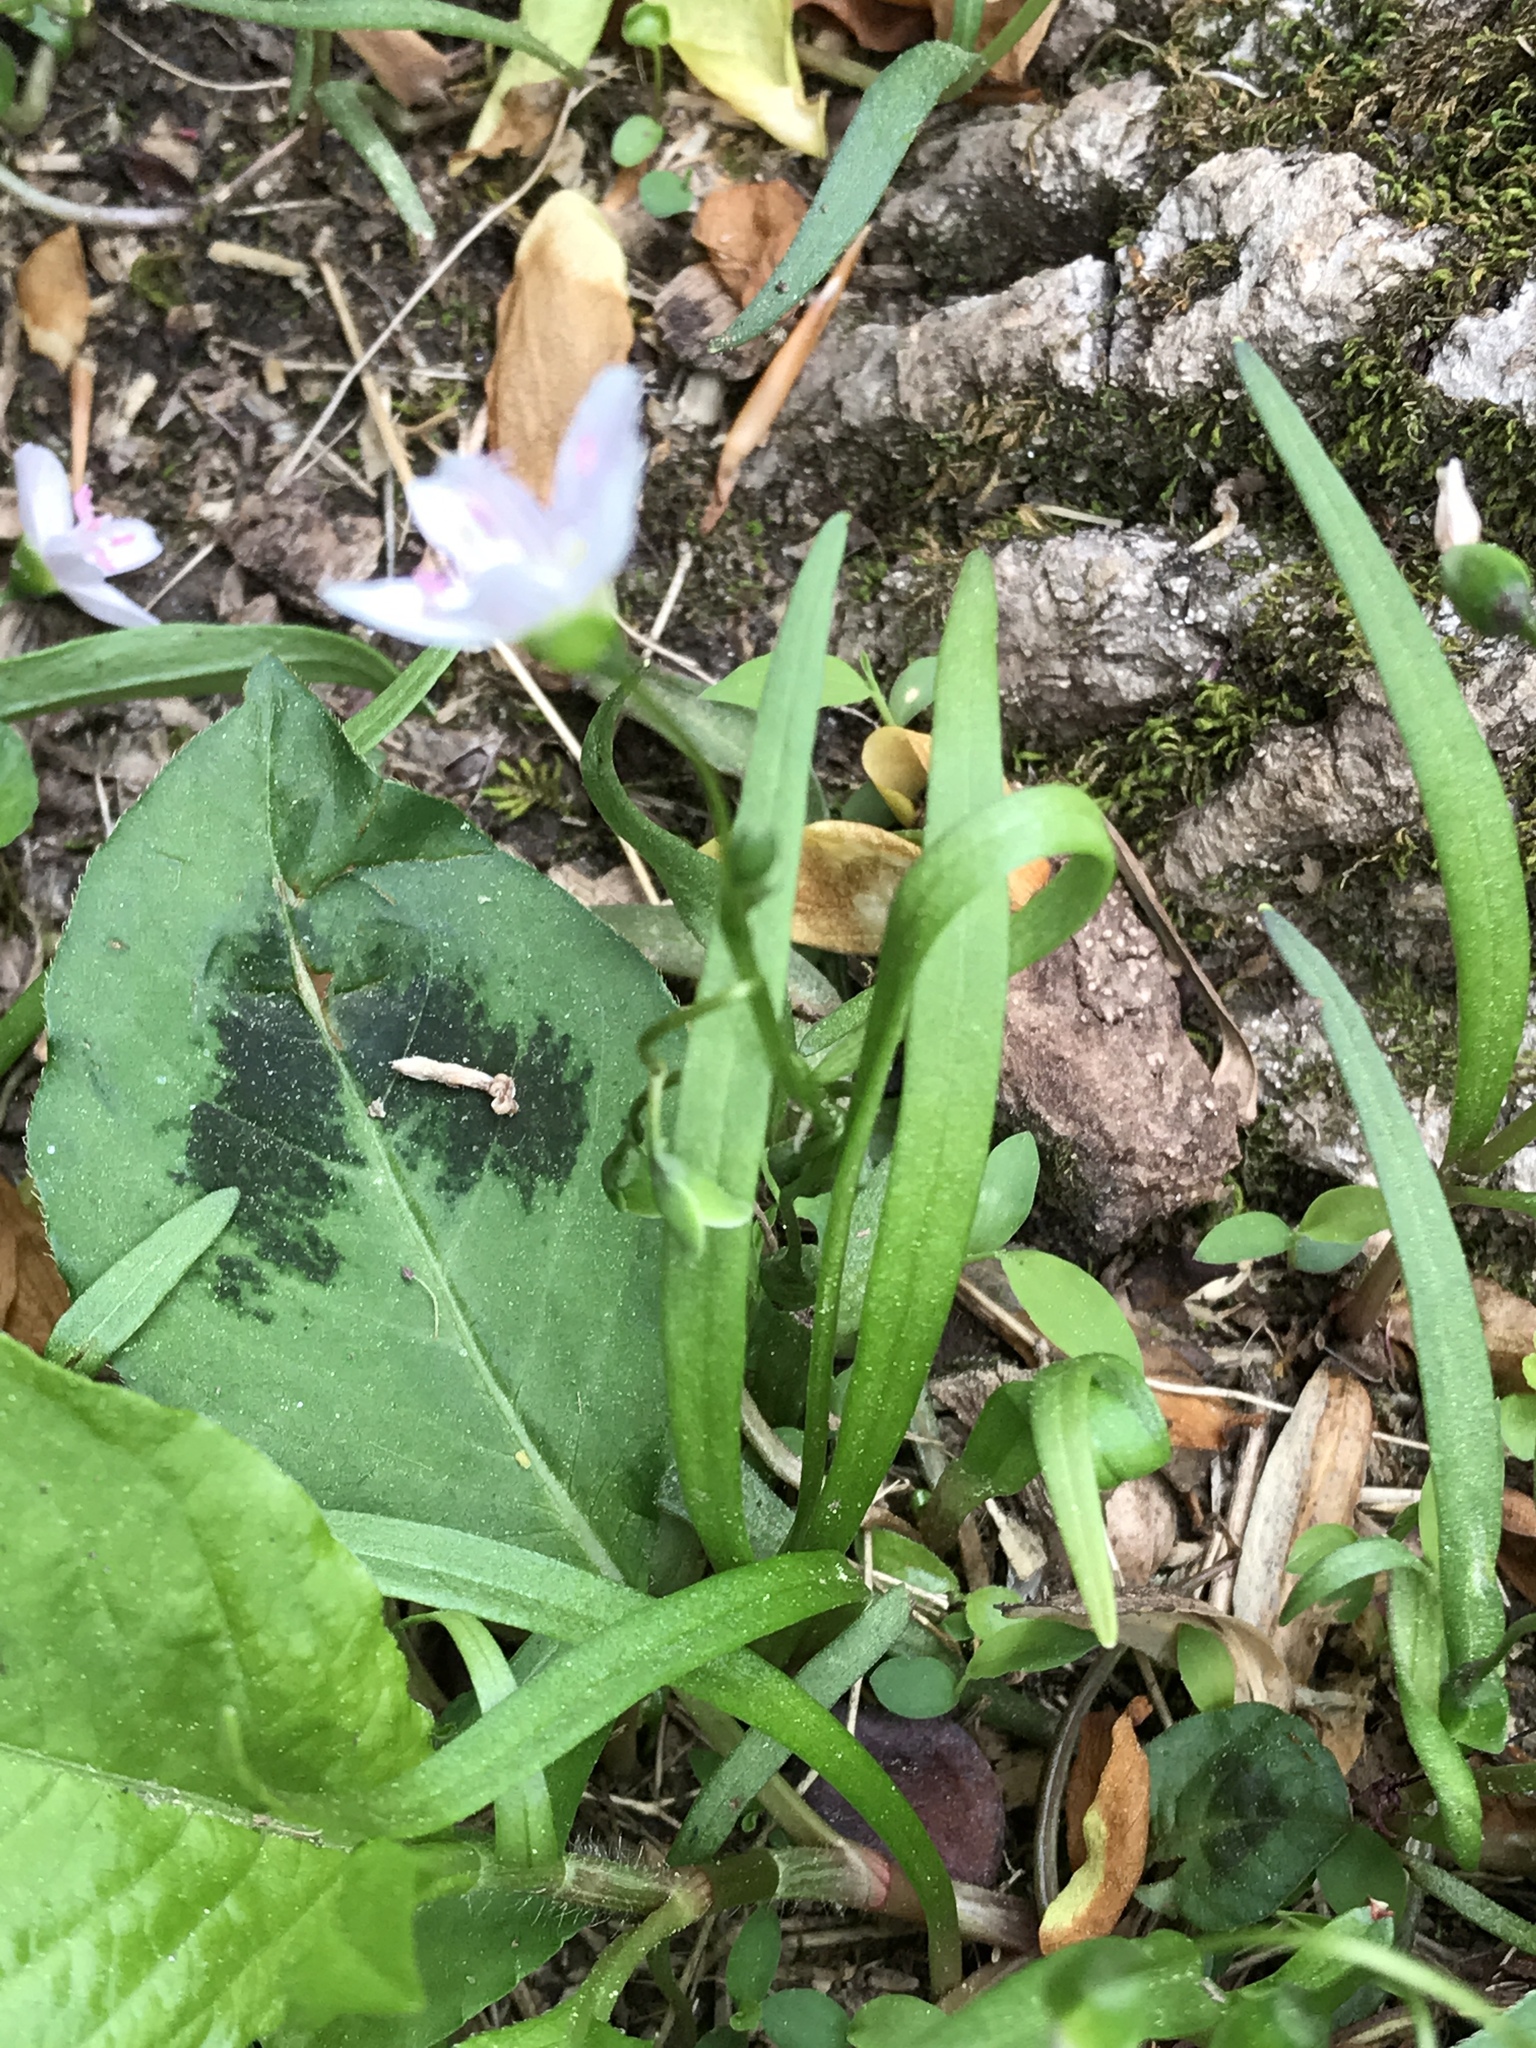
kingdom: Plantae
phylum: Tracheophyta
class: Magnoliopsida
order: Caryophyllales
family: Montiaceae
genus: Claytonia
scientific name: Claytonia virginica
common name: Virginia springbeauty
